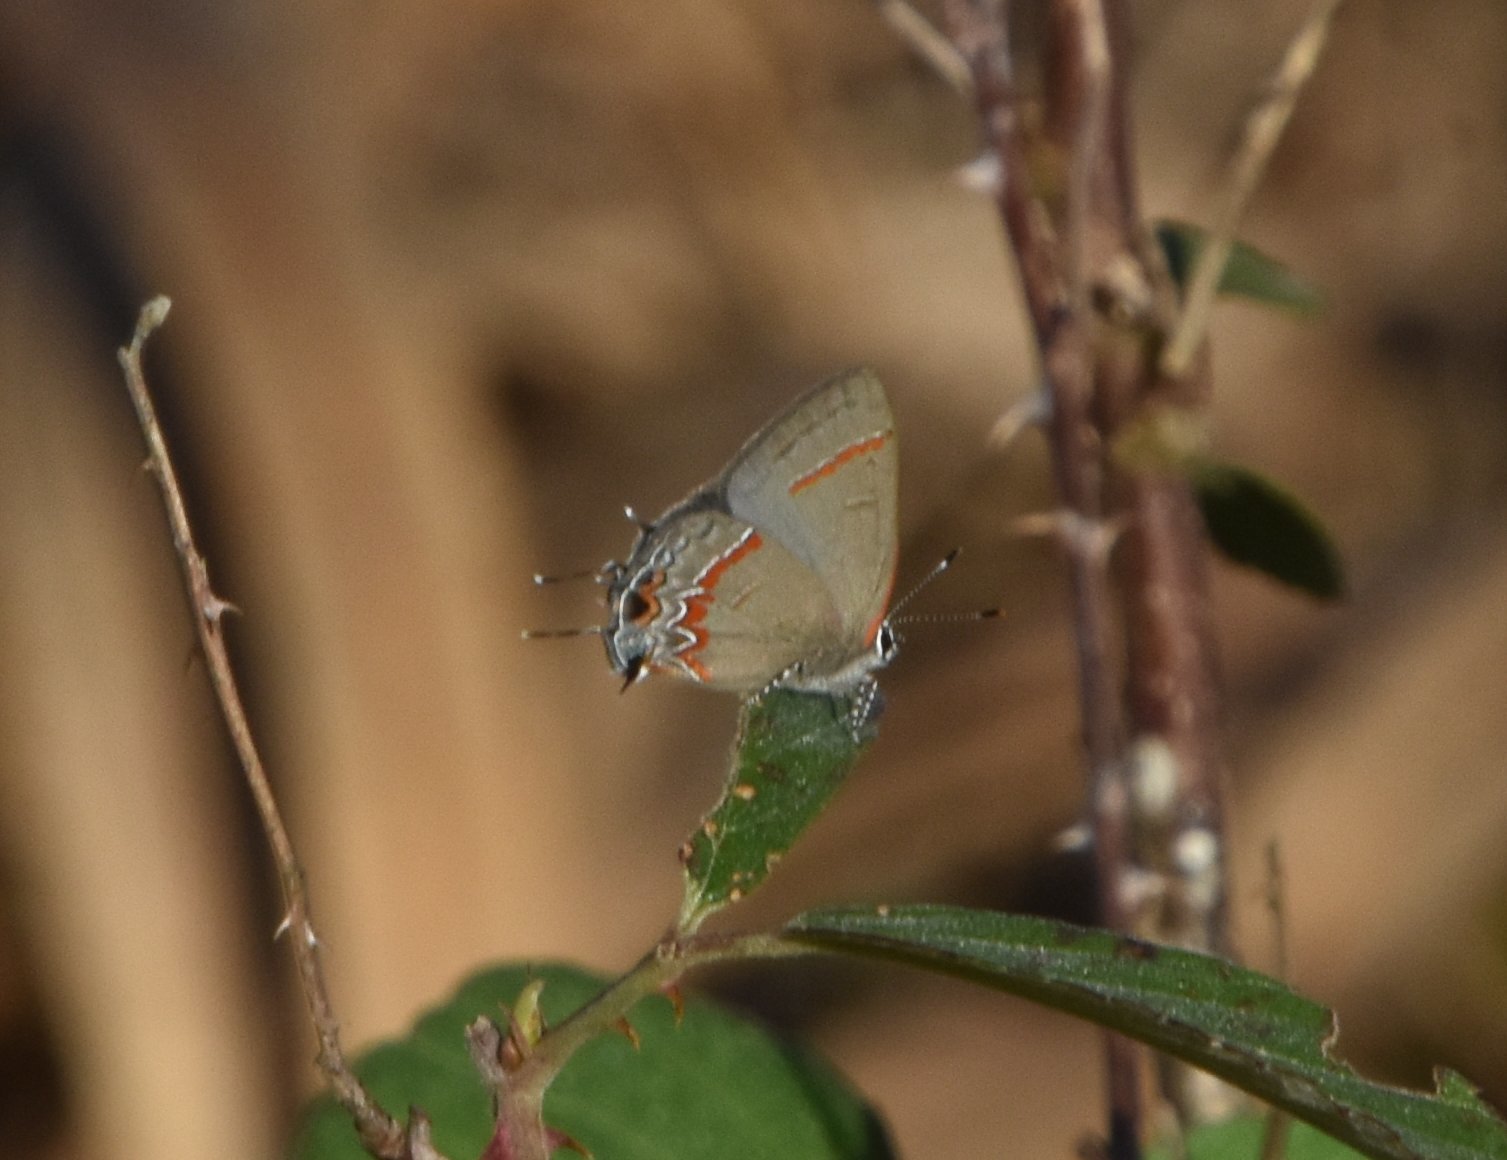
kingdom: Animalia
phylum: Arthropoda
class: Insecta
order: Lepidoptera
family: Lycaenidae
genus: Calycopis
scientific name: Calycopis cecrops
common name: Red-banded hairstreak
